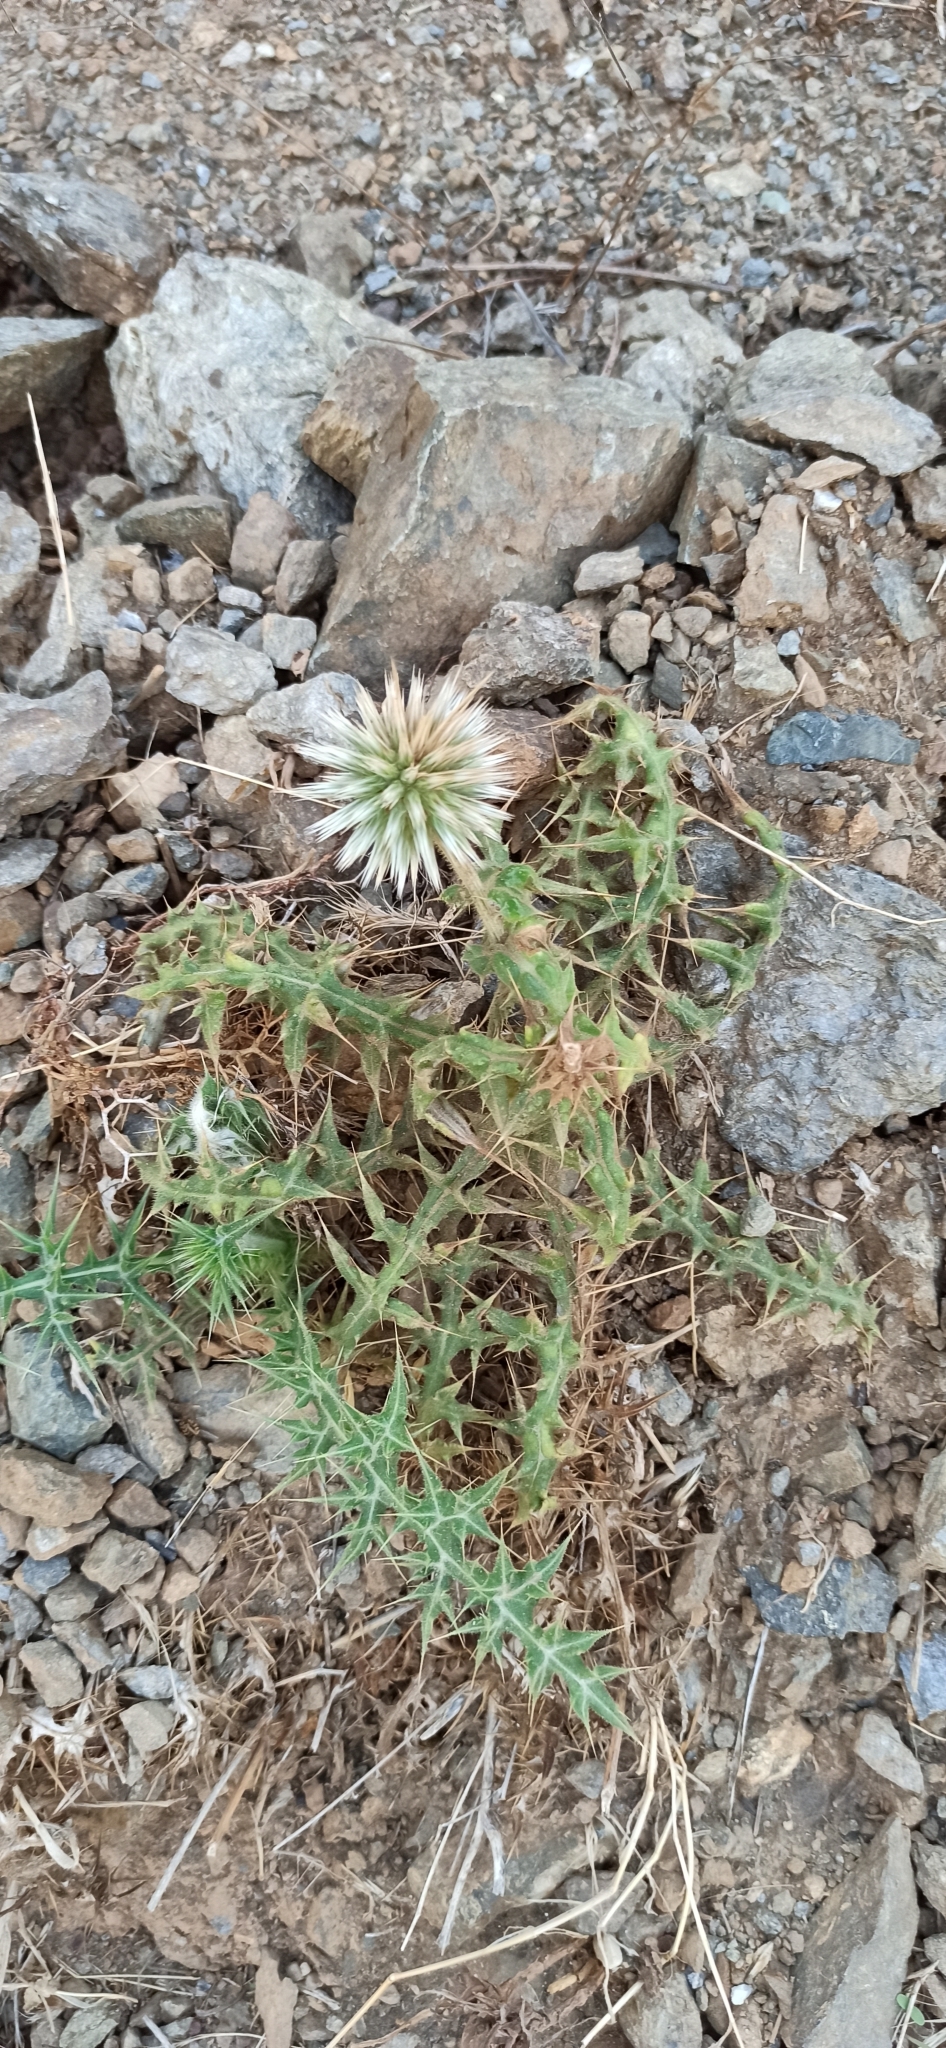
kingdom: Plantae
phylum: Tracheophyta
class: Magnoliopsida
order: Asterales
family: Asteraceae
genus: Echinops
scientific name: Echinops spinosissimus
